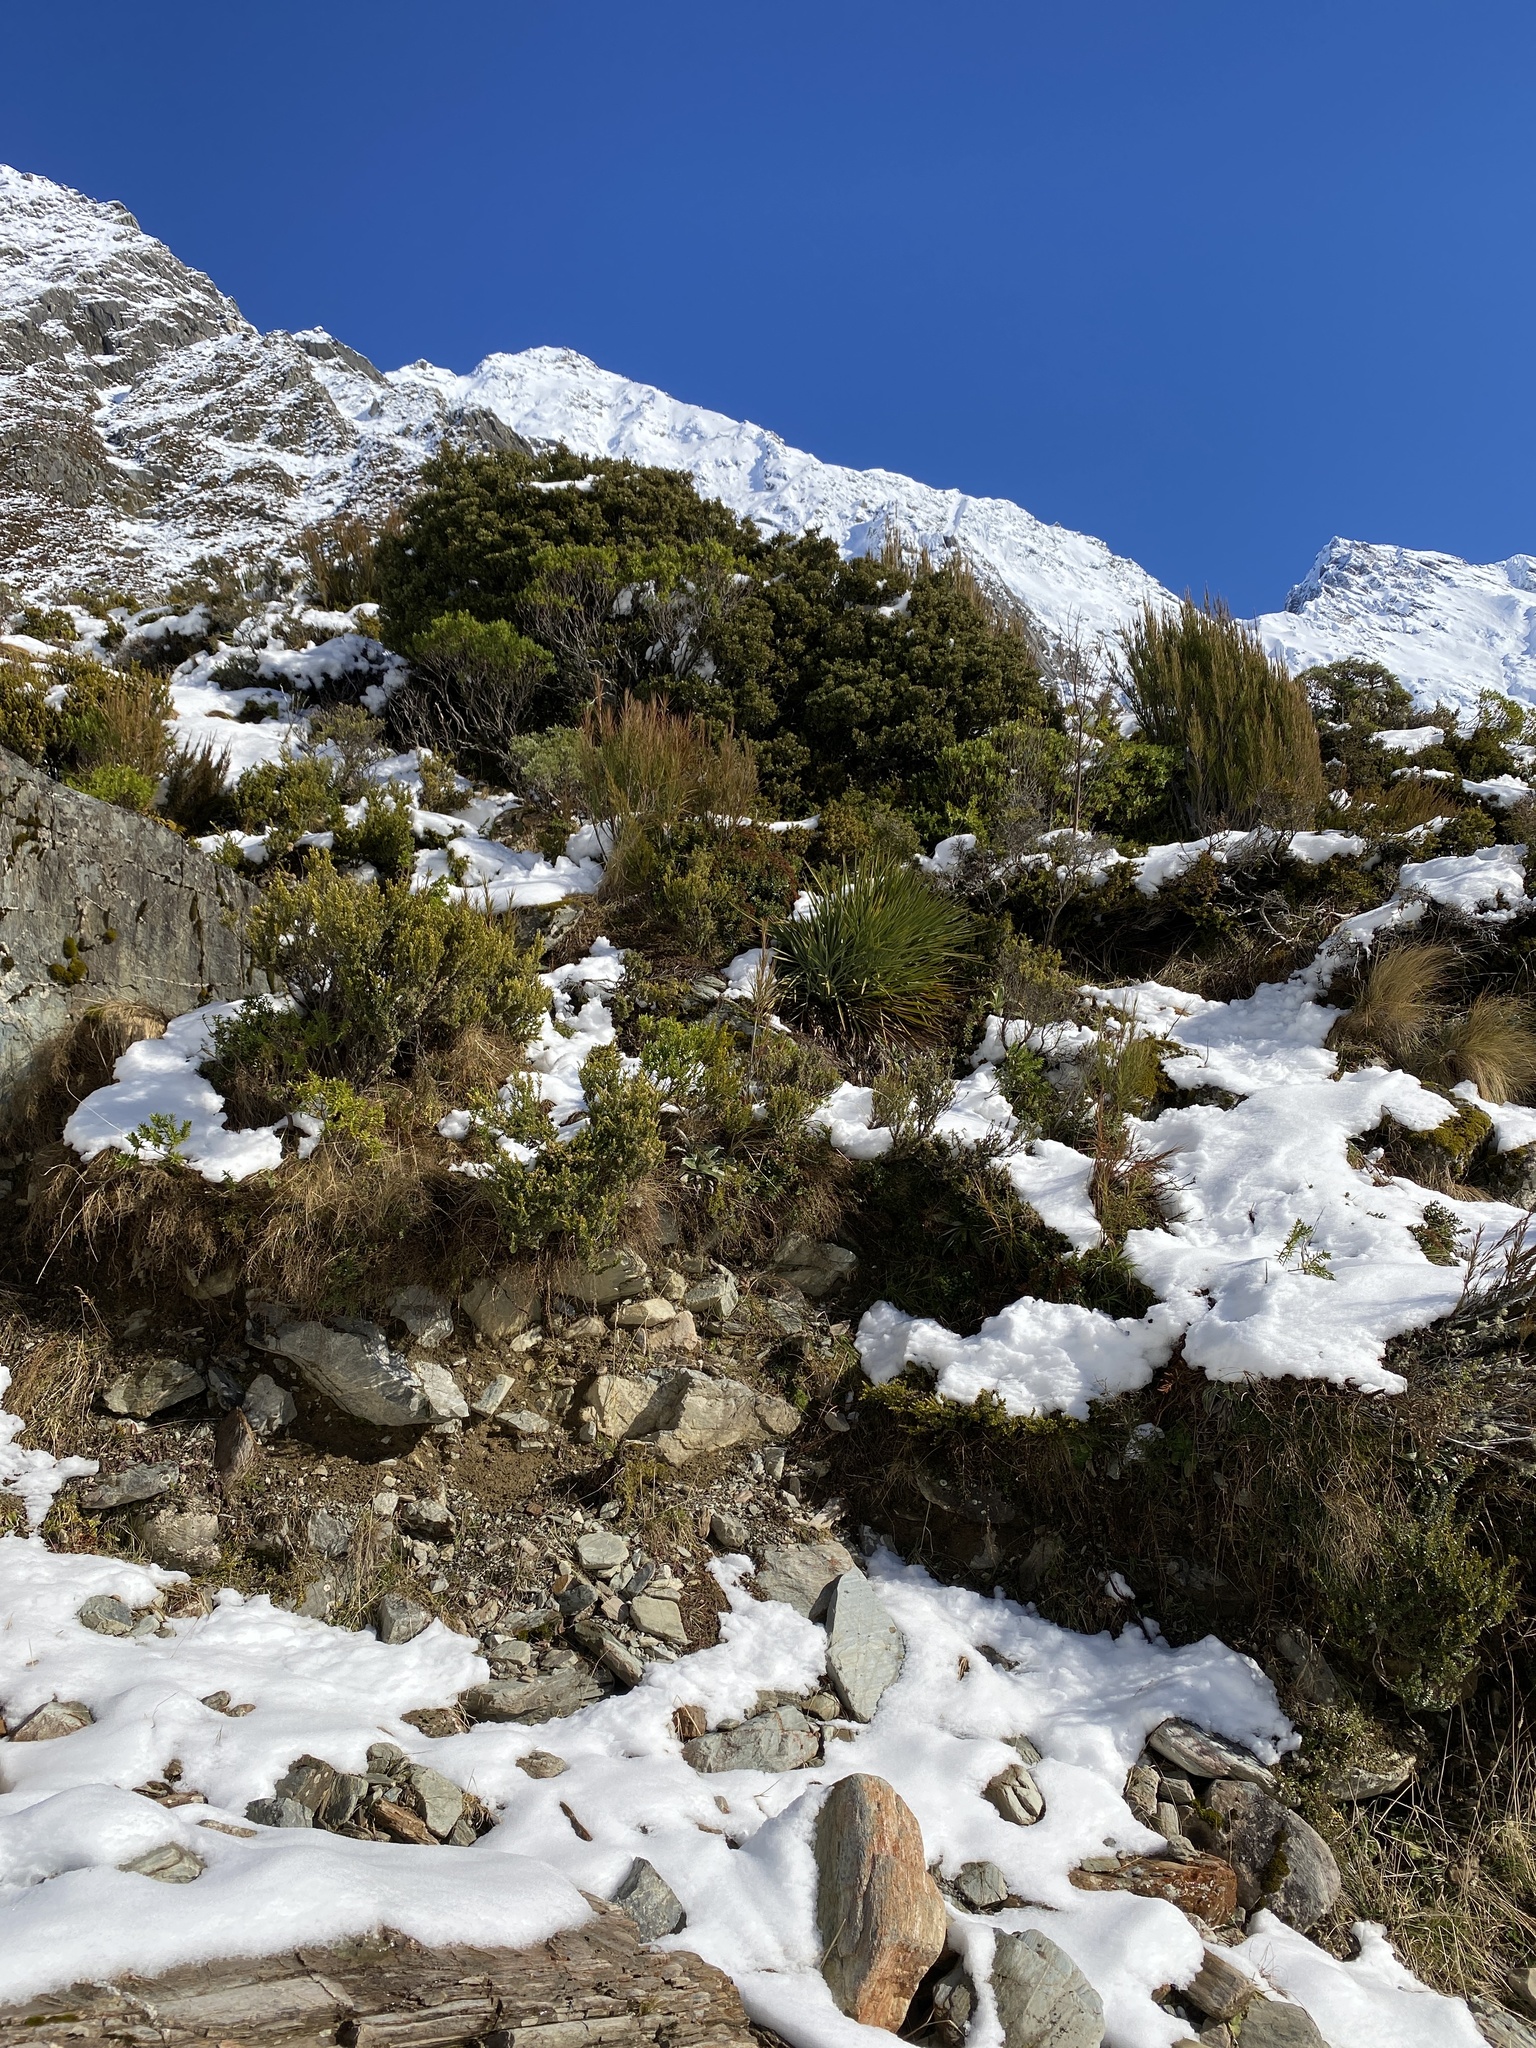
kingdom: Animalia
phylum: Chordata
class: Aves
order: Passeriformes
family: Acanthisittidae
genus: Acanthisitta
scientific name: Acanthisitta chloris
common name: Rifleman
